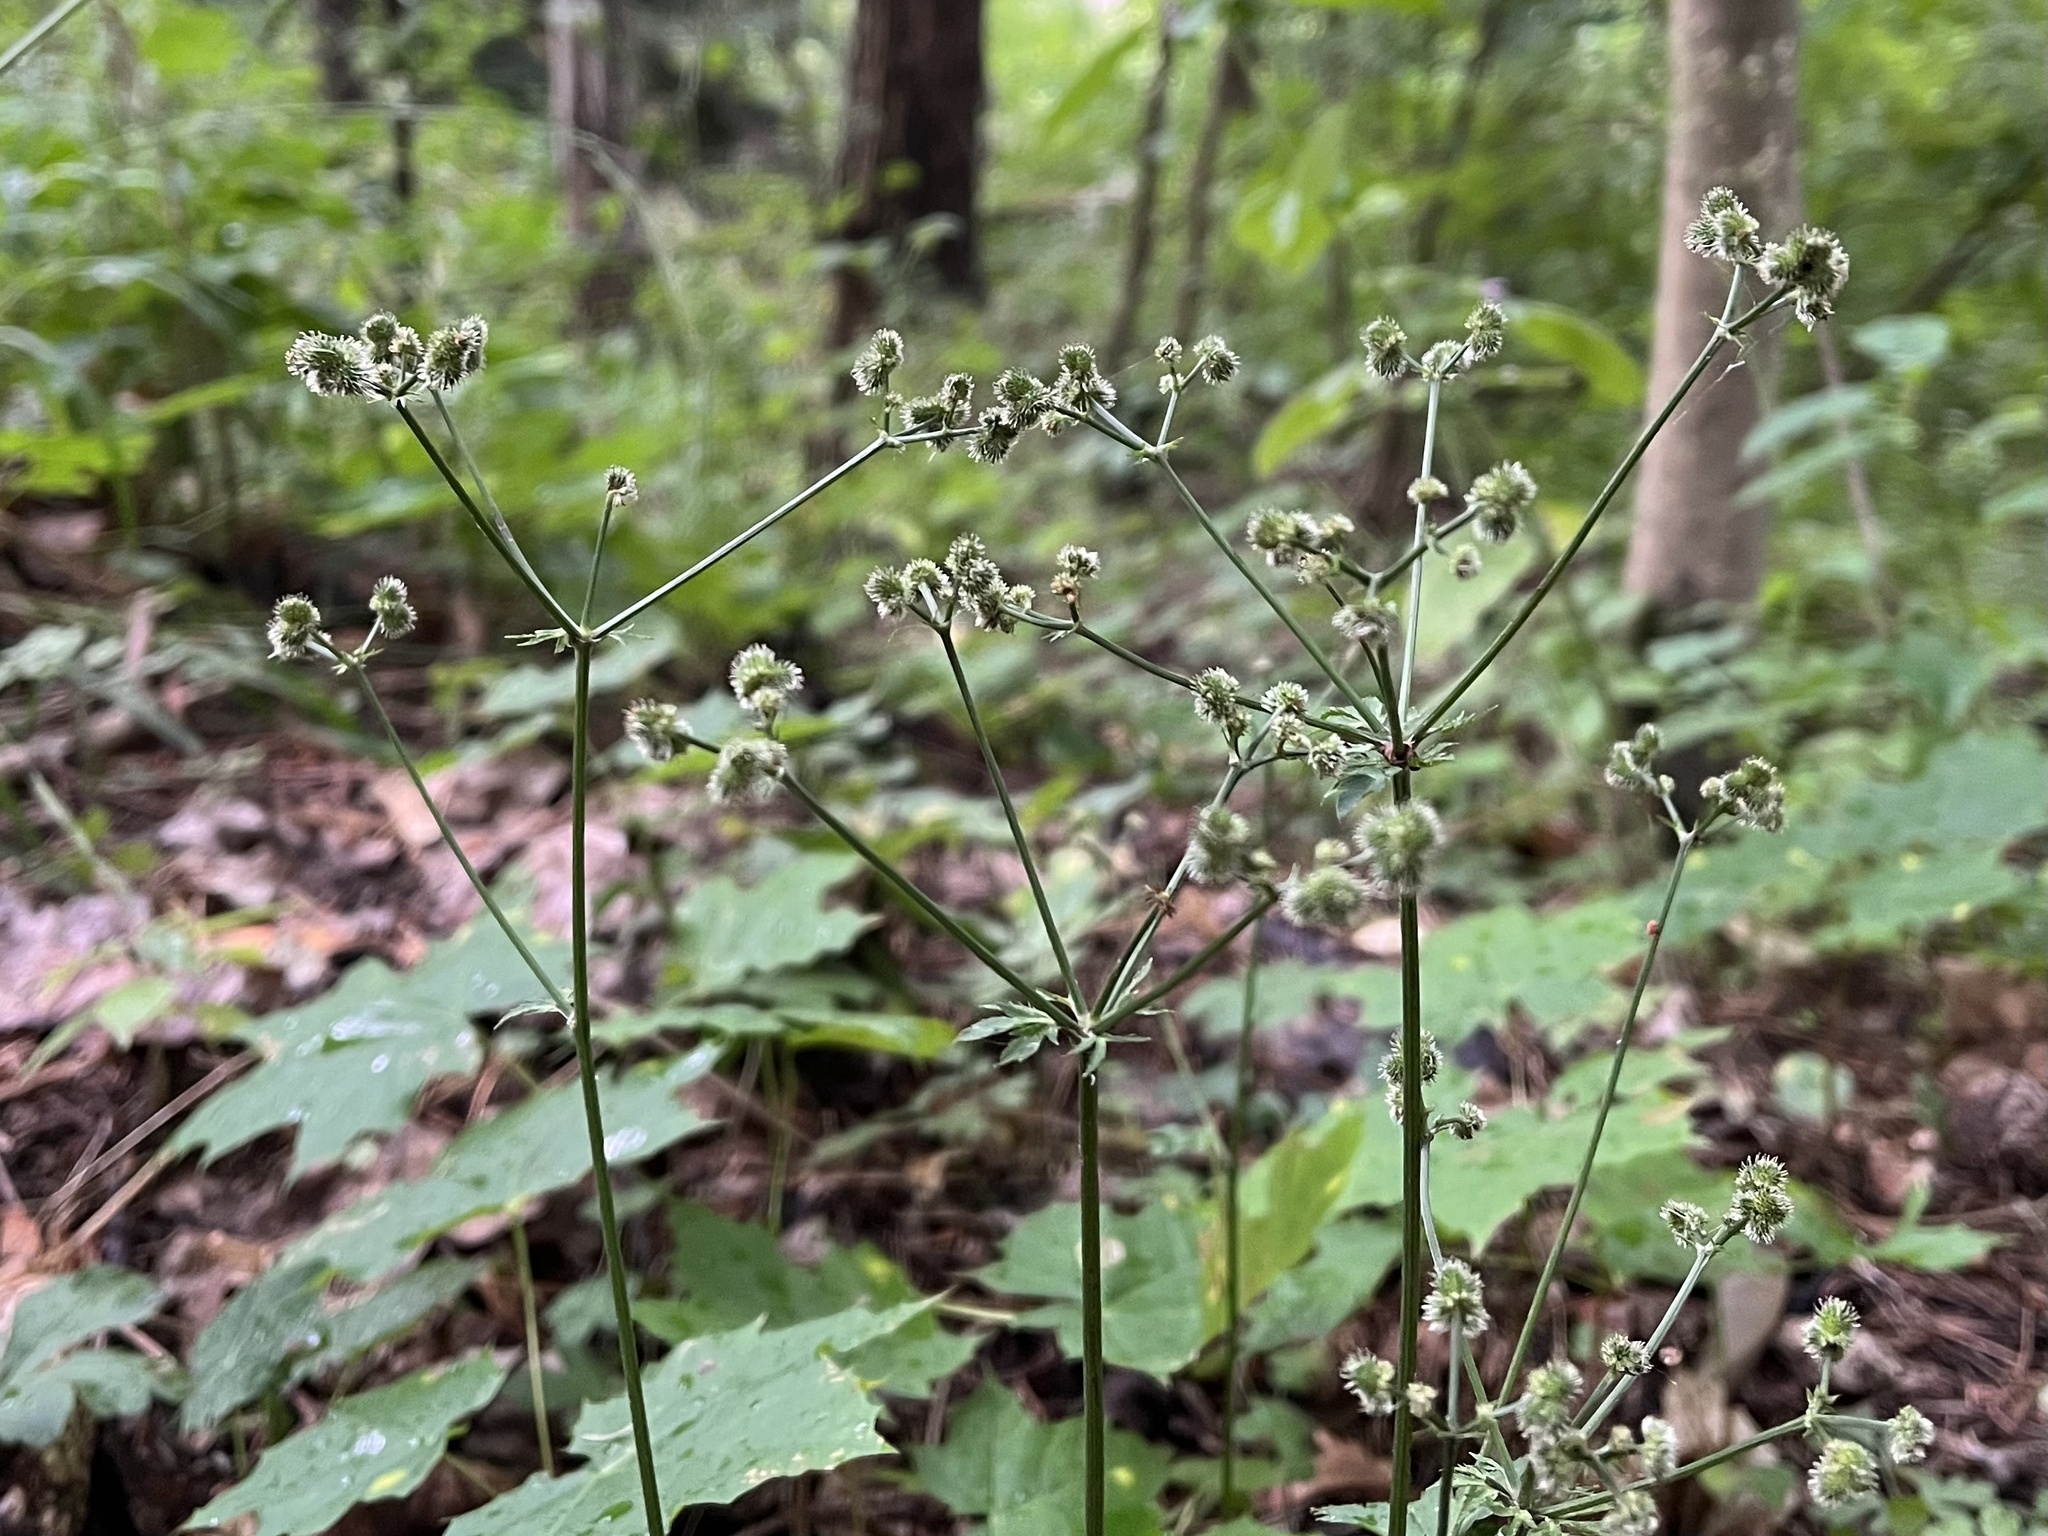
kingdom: Plantae
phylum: Tracheophyta
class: Magnoliopsida
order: Apiales
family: Apiaceae
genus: Sanicula
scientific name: Sanicula europaea
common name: Sanicle
